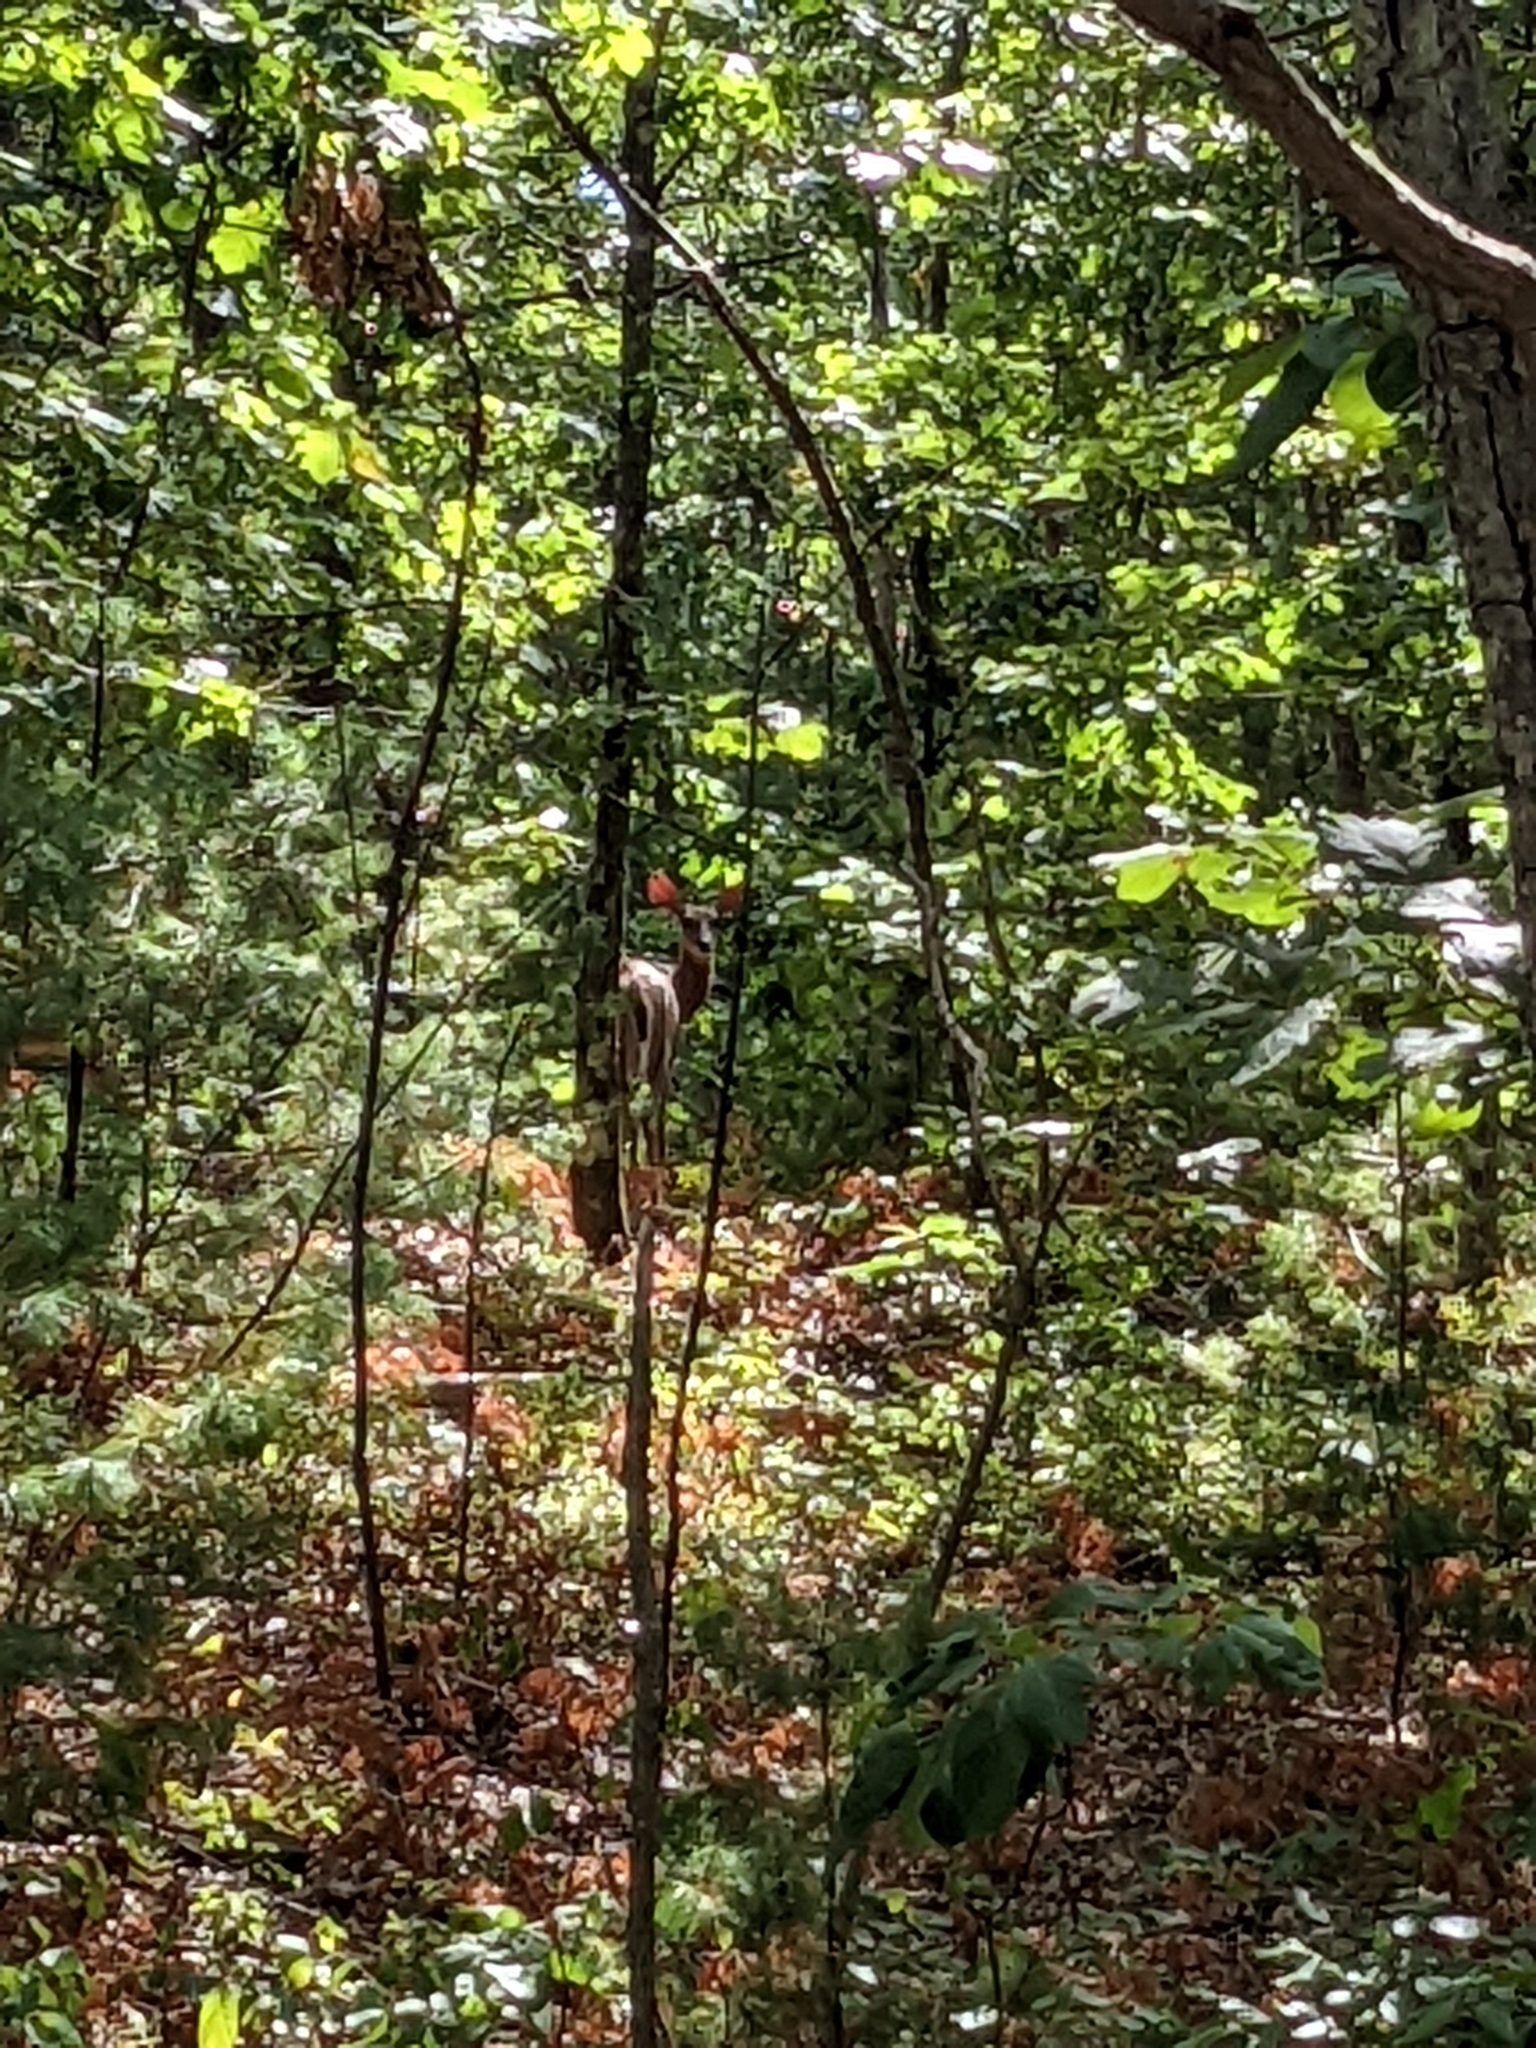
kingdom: Animalia
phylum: Chordata
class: Mammalia
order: Artiodactyla
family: Cervidae
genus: Odocoileus
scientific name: Odocoileus virginianus
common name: White-tailed deer
